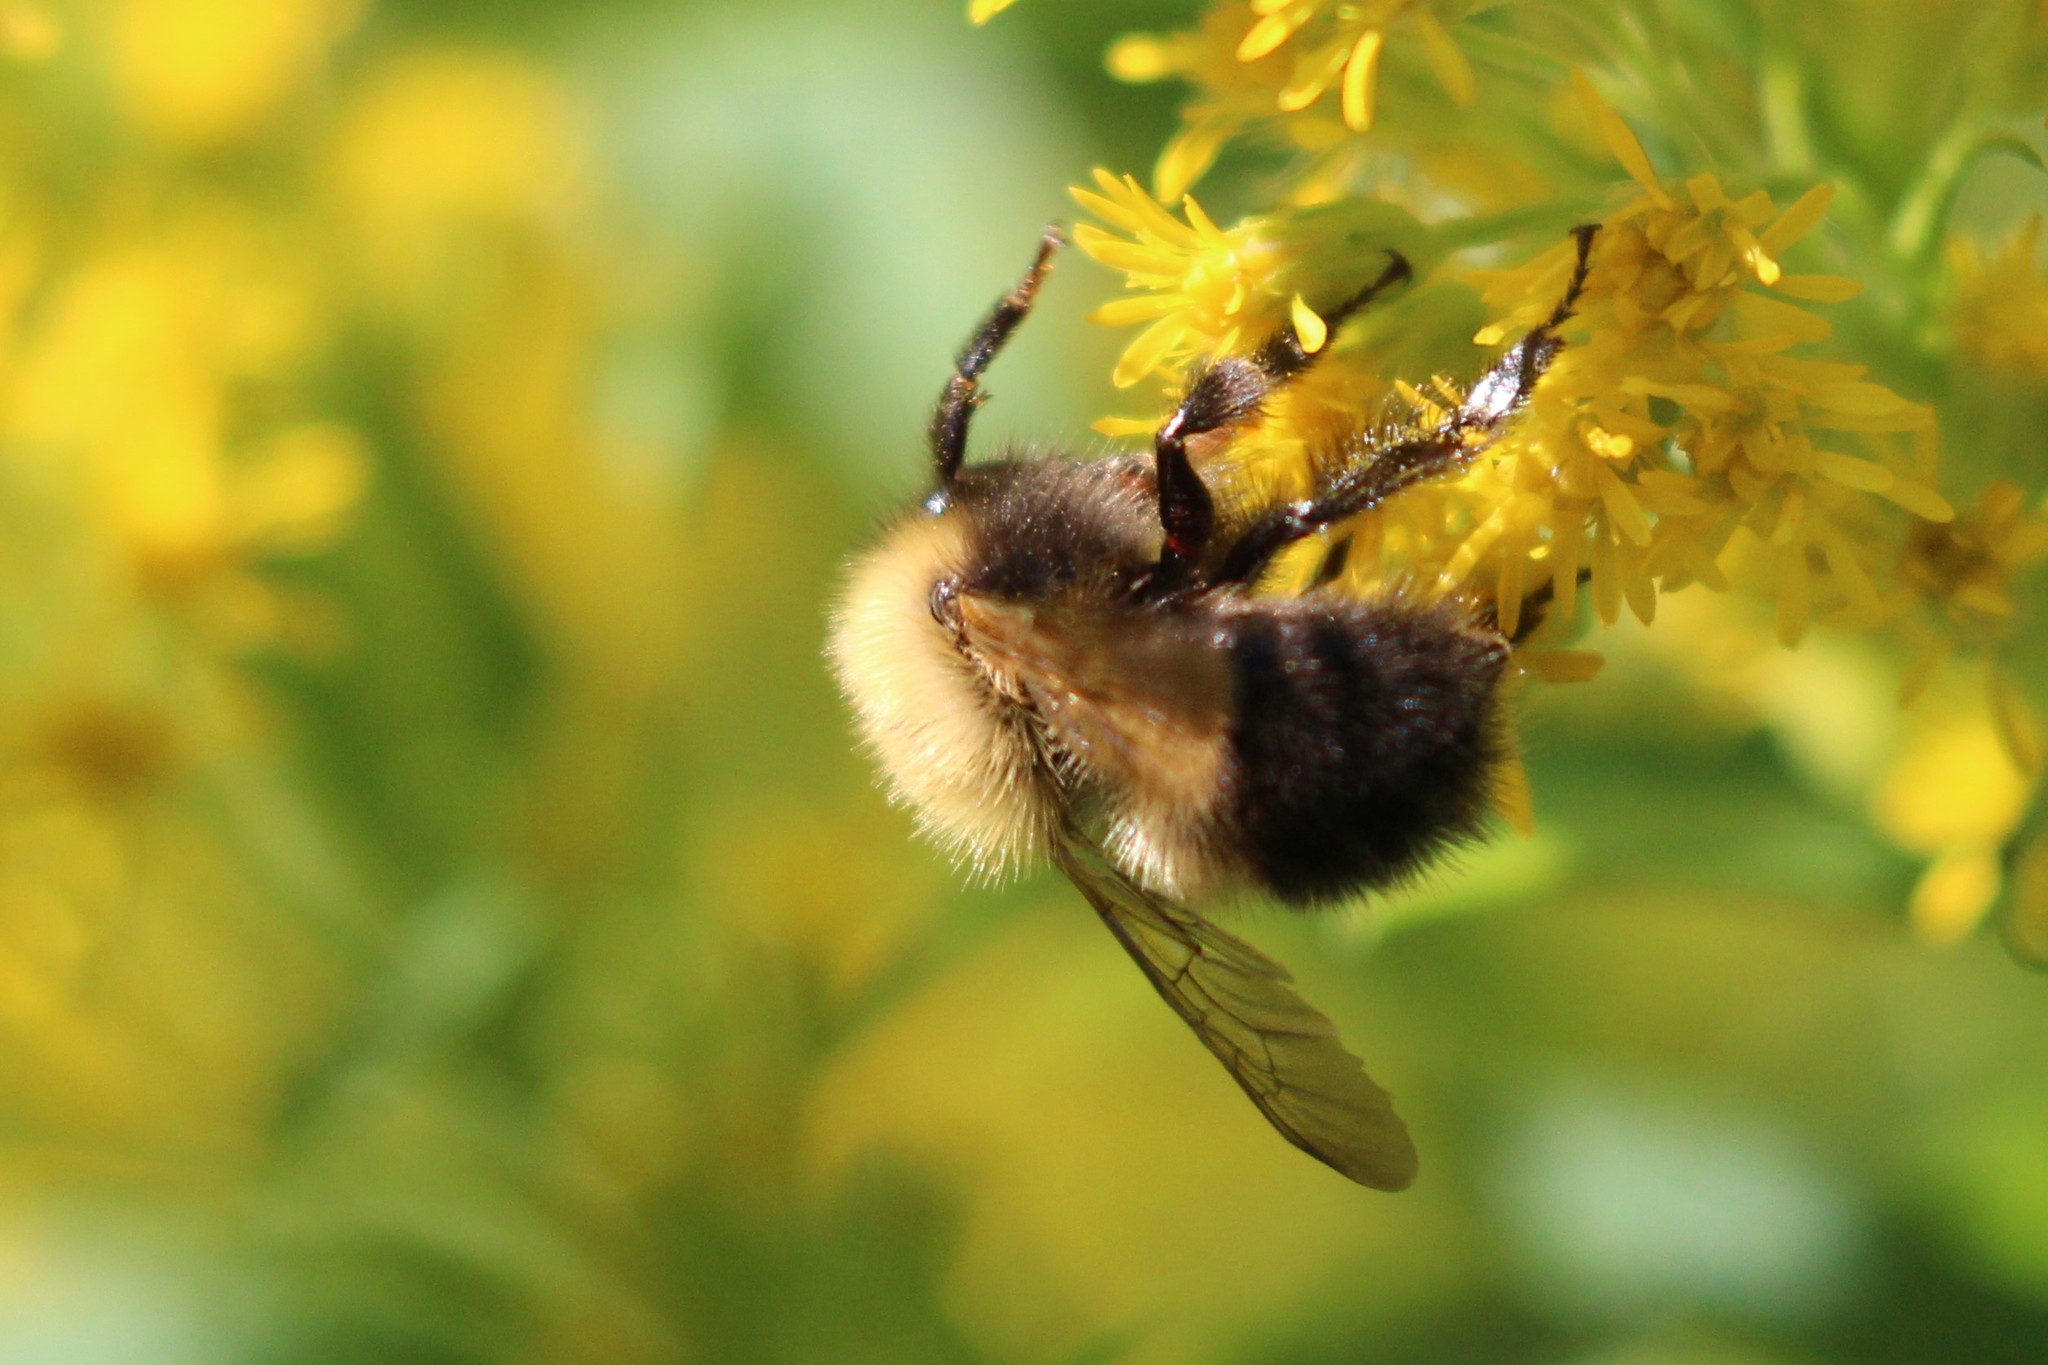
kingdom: Animalia
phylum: Arthropoda
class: Insecta
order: Hymenoptera
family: Apidae
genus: Bombus
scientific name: Bombus perplexus
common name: Confusing bumble bee
